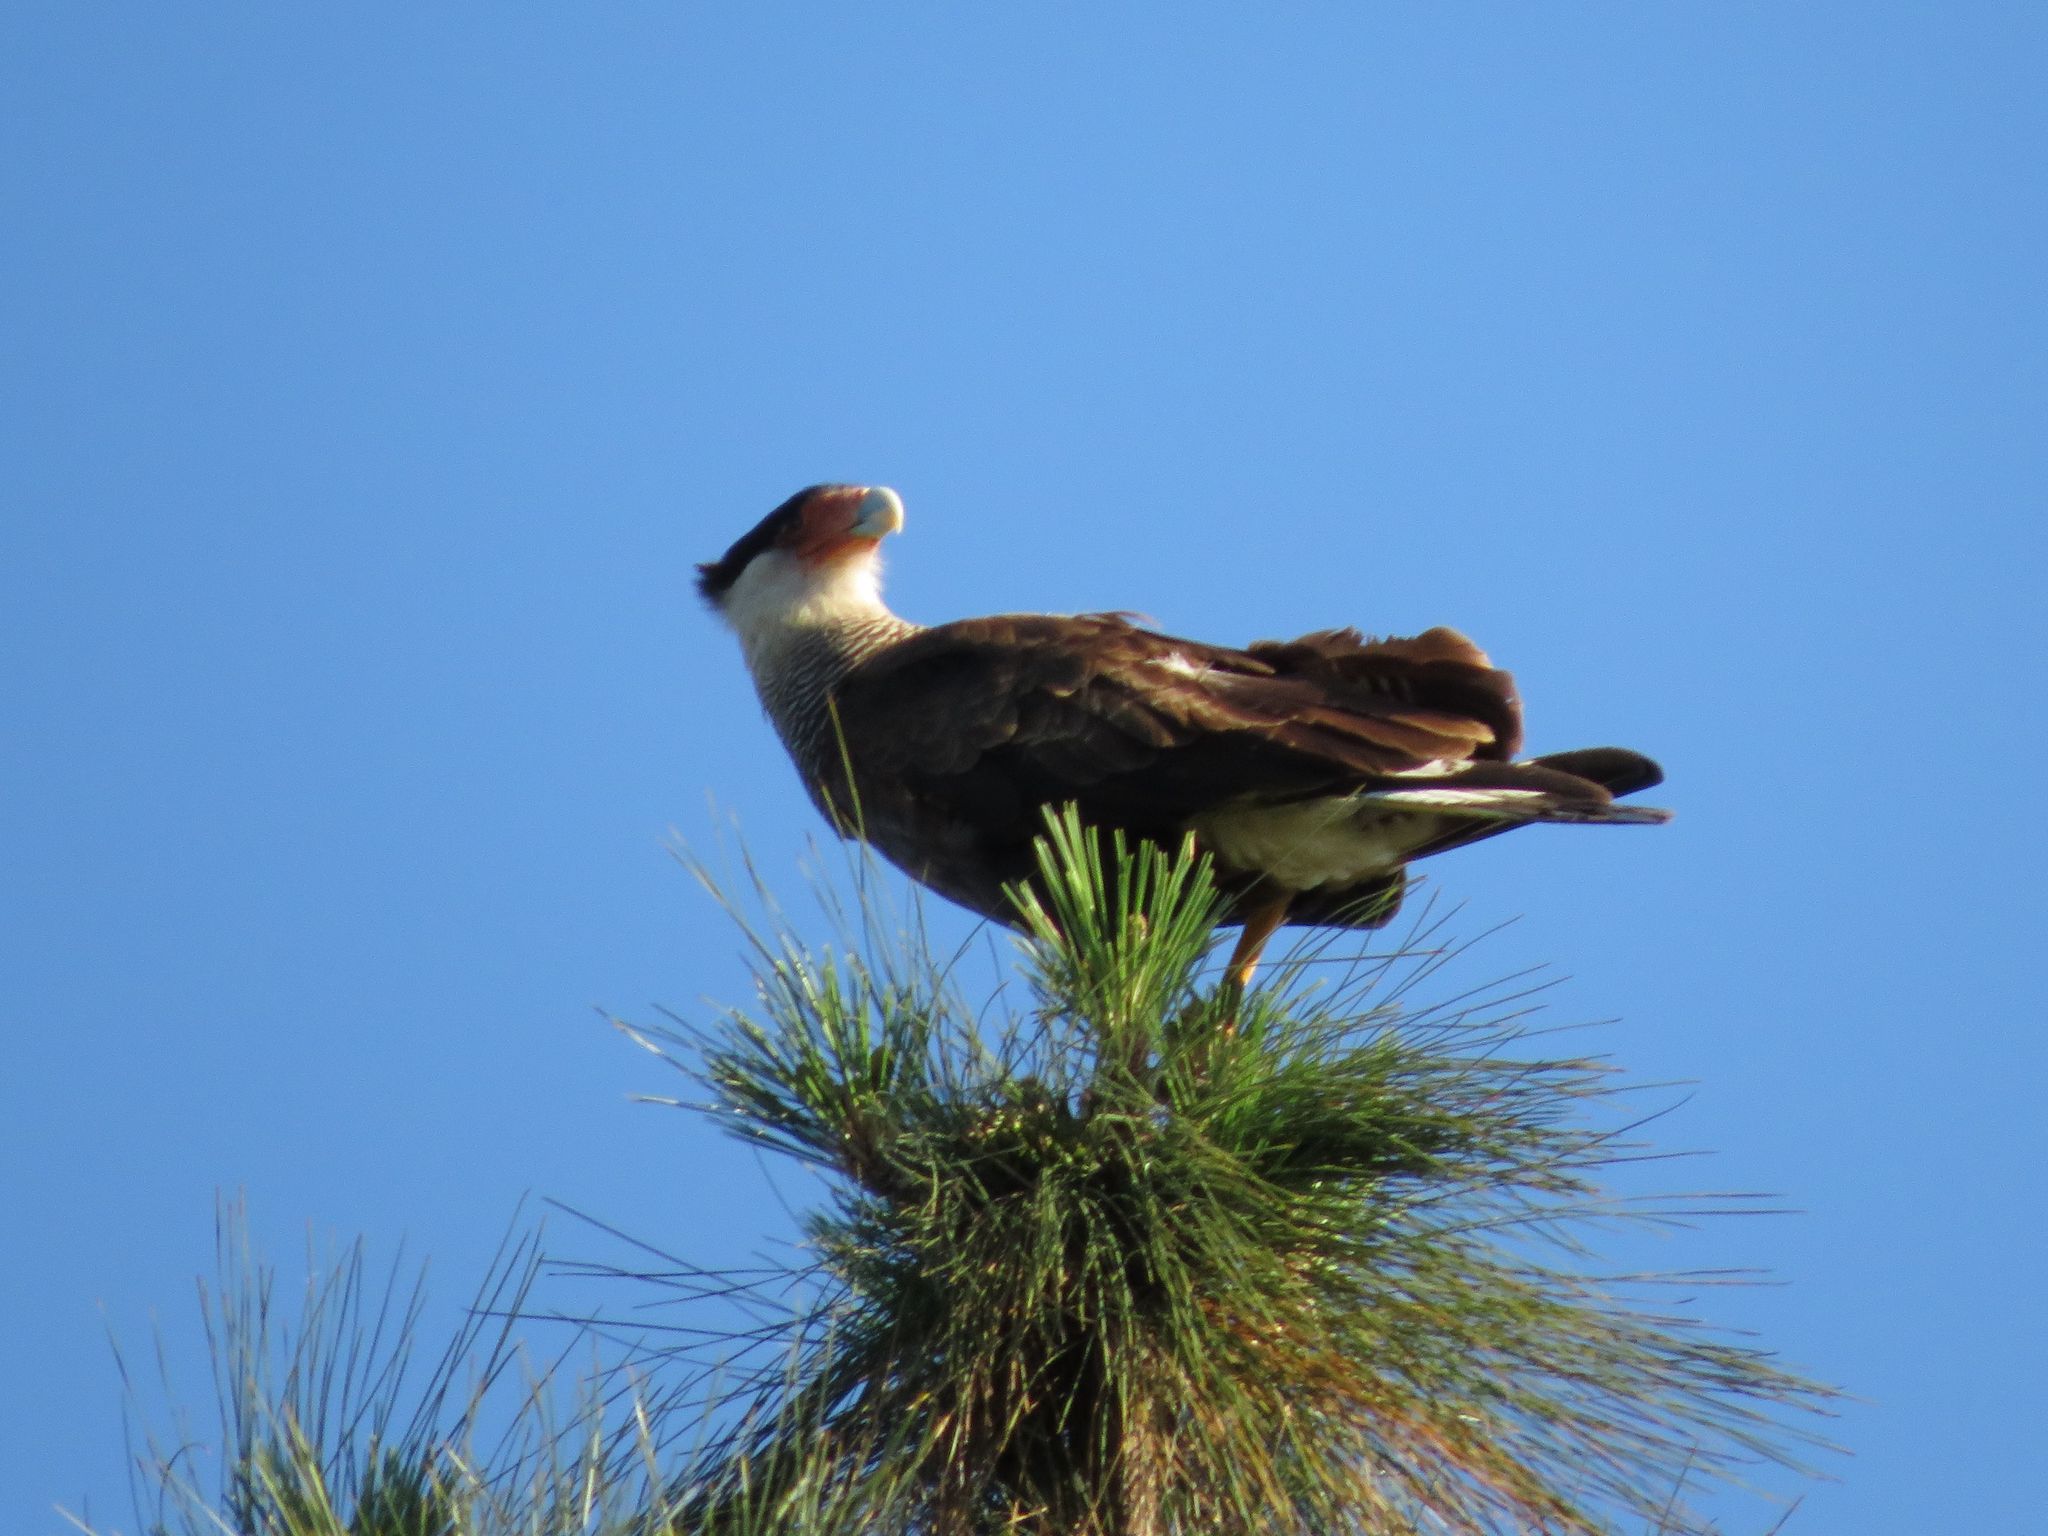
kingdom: Animalia
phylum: Chordata
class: Aves
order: Falconiformes
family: Falconidae
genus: Caracara
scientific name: Caracara plancus
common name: Southern caracara
